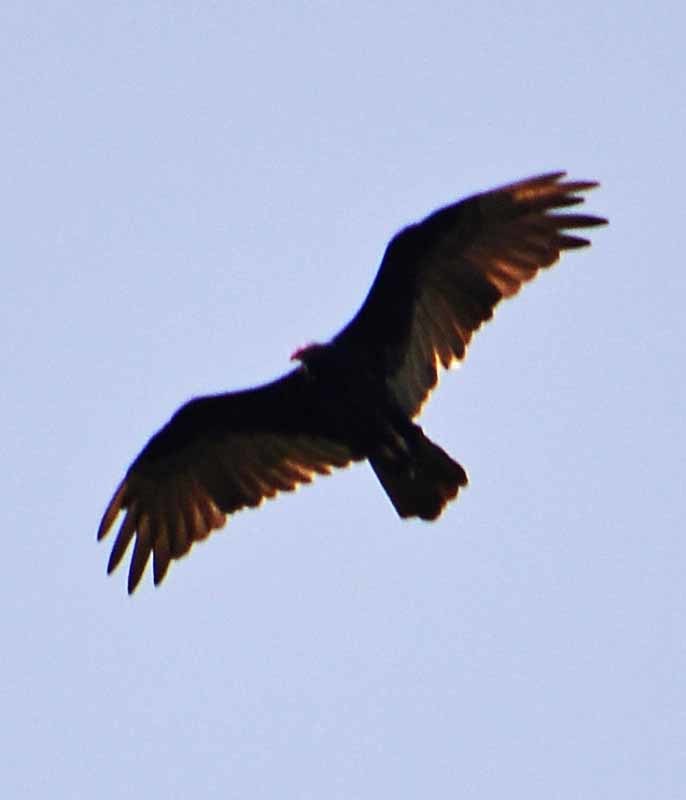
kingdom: Animalia
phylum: Chordata
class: Aves
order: Accipitriformes
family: Cathartidae
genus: Cathartes
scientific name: Cathartes aura
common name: Turkey vulture
